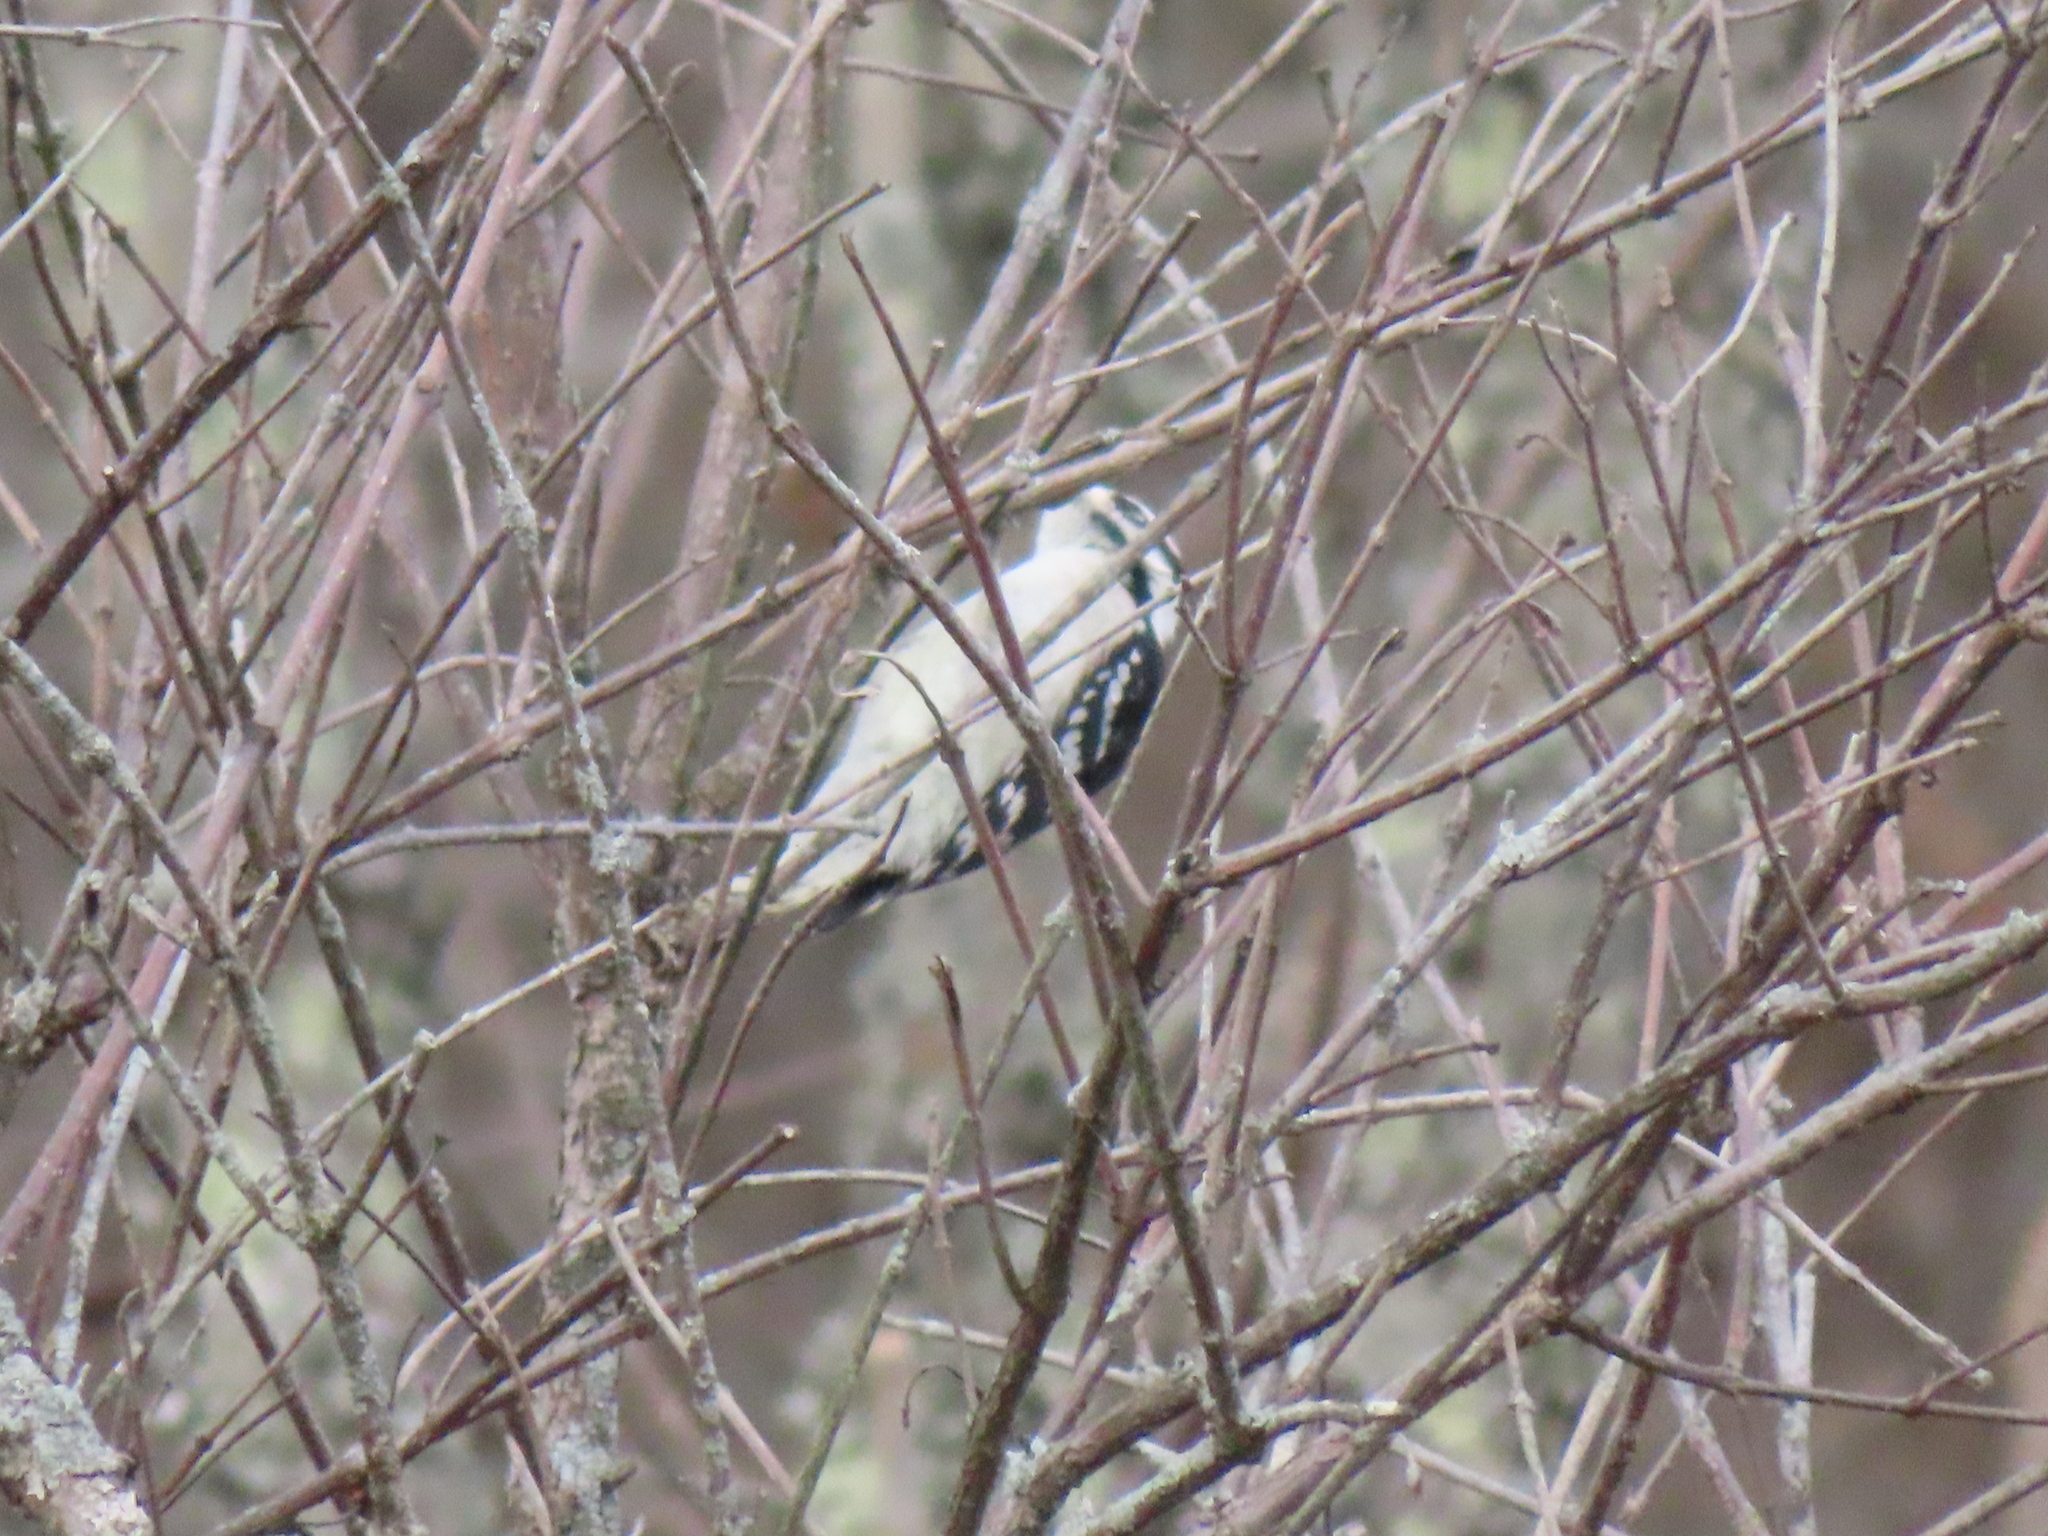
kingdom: Animalia
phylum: Chordata
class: Aves
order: Piciformes
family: Picidae
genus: Dryobates
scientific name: Dryobates pubescens
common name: Downy woodpecker
